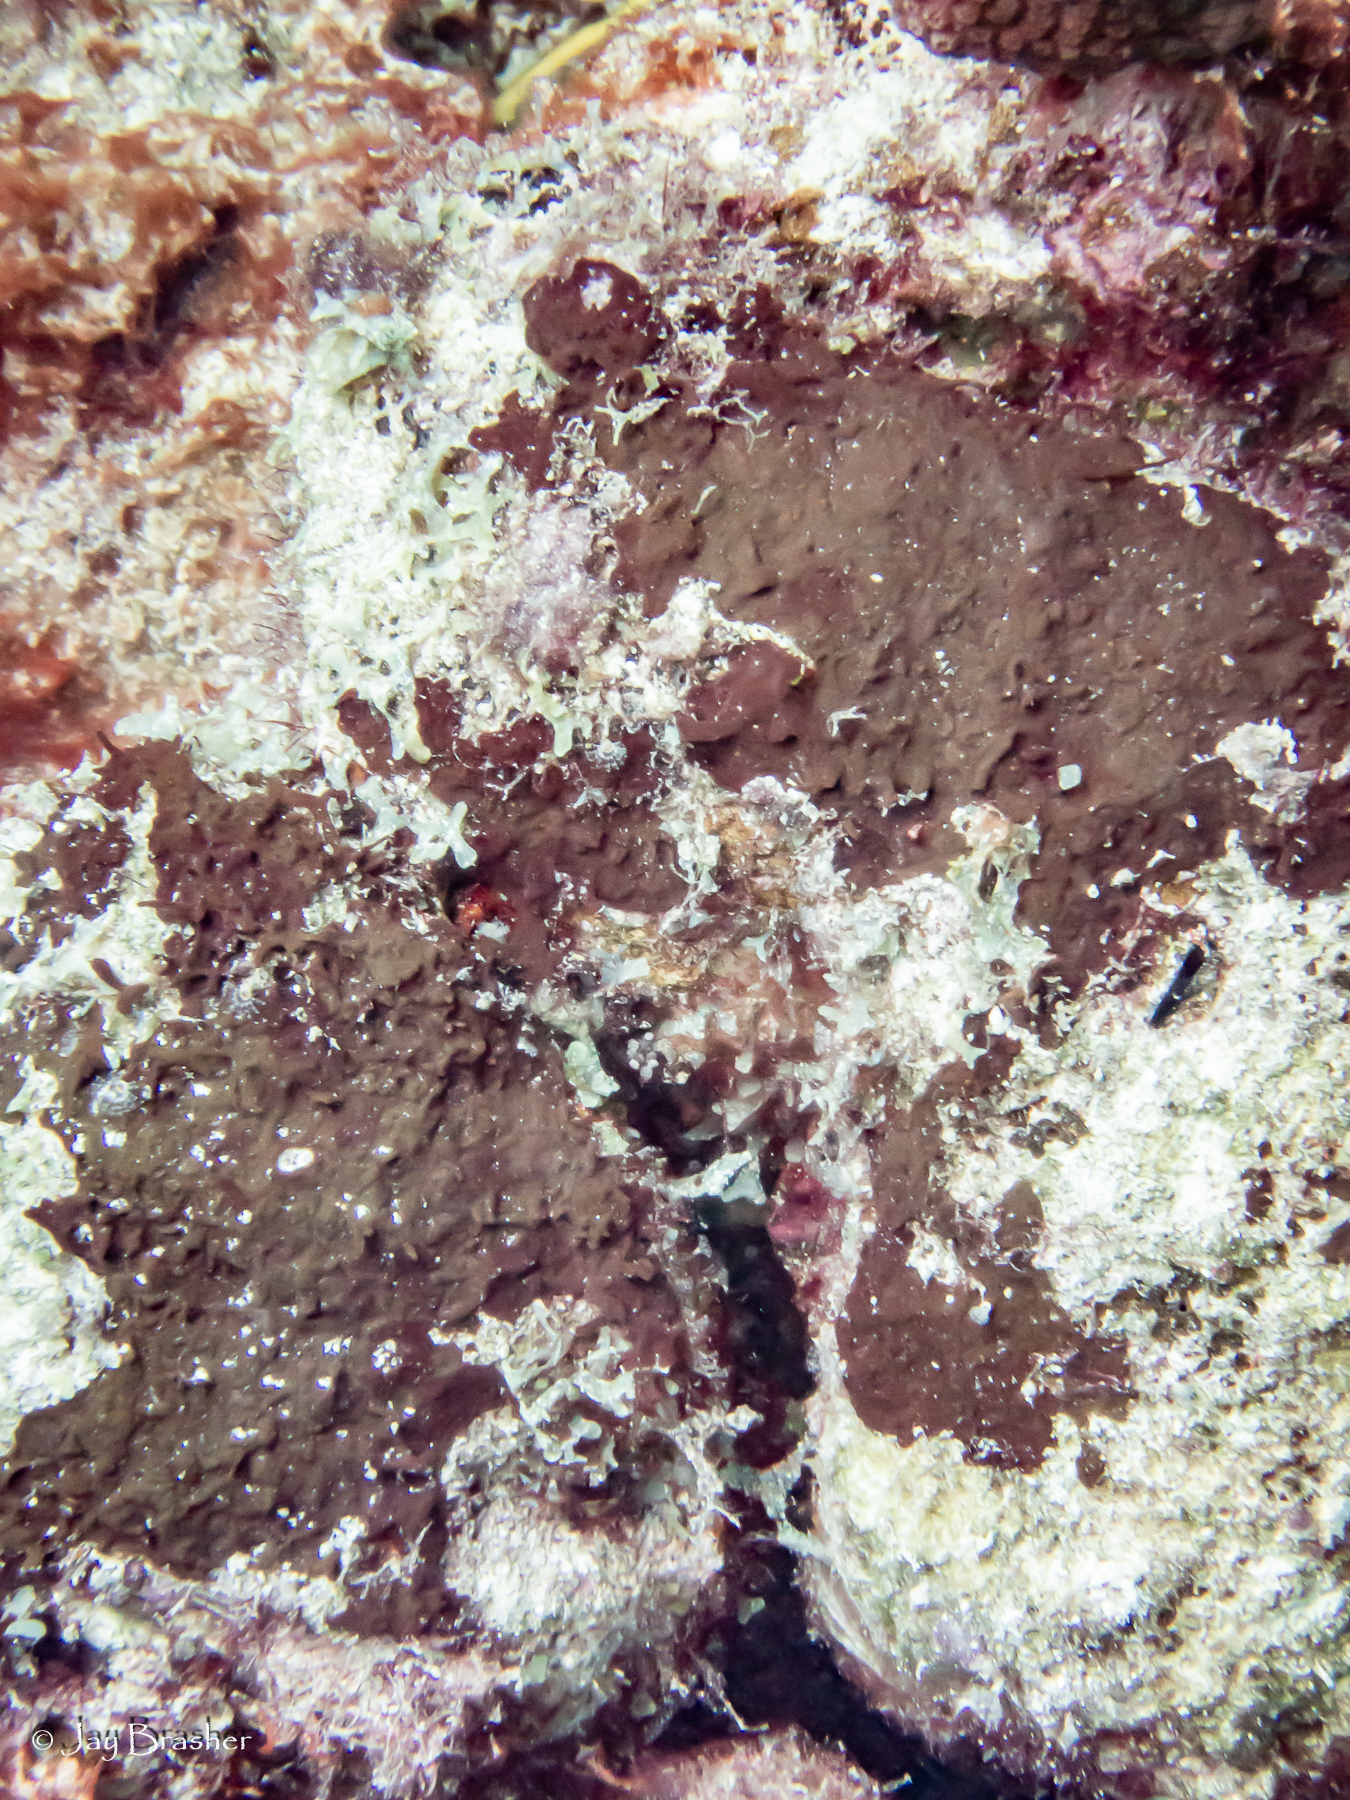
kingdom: Animalia
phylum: Porifera
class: Demospongiae
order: Bubarida
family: Dictyonellidae
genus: Dictyonella
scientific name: Dictyonella funicularis
